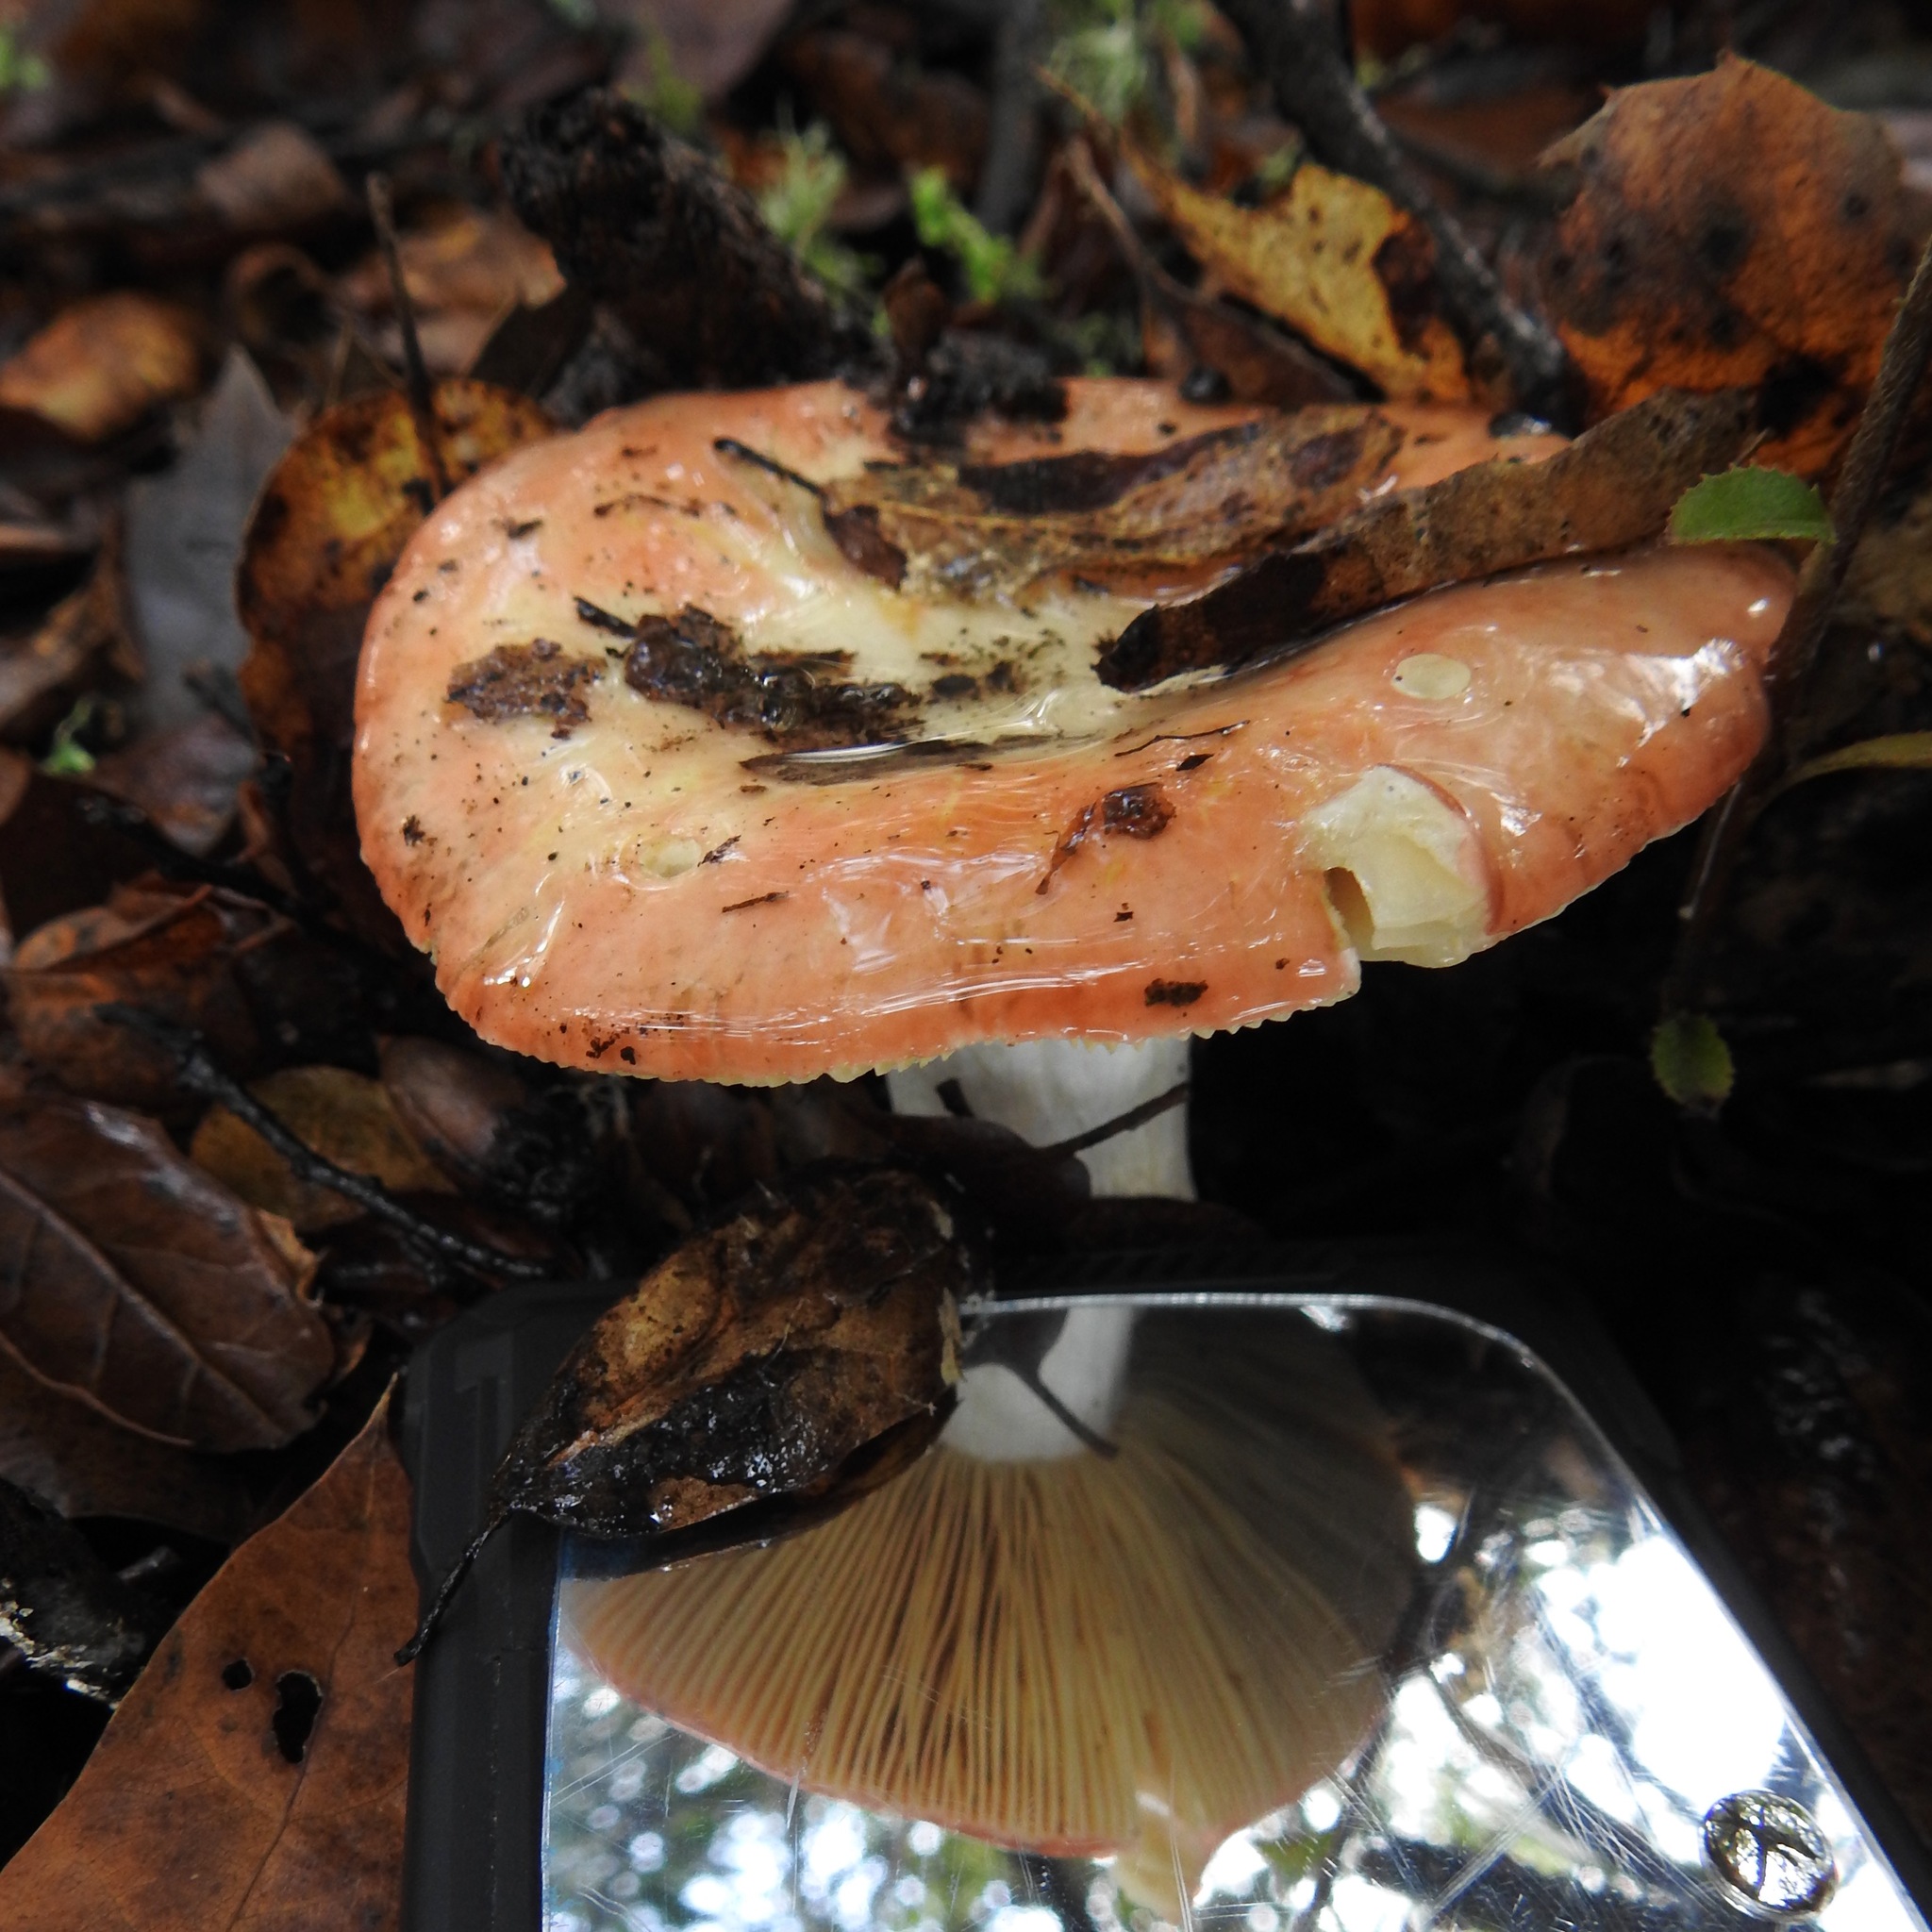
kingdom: Fungi
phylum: Basidiomycota
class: Agaricomycetes
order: Russulales
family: Russulaceae
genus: Russula
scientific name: Russula
